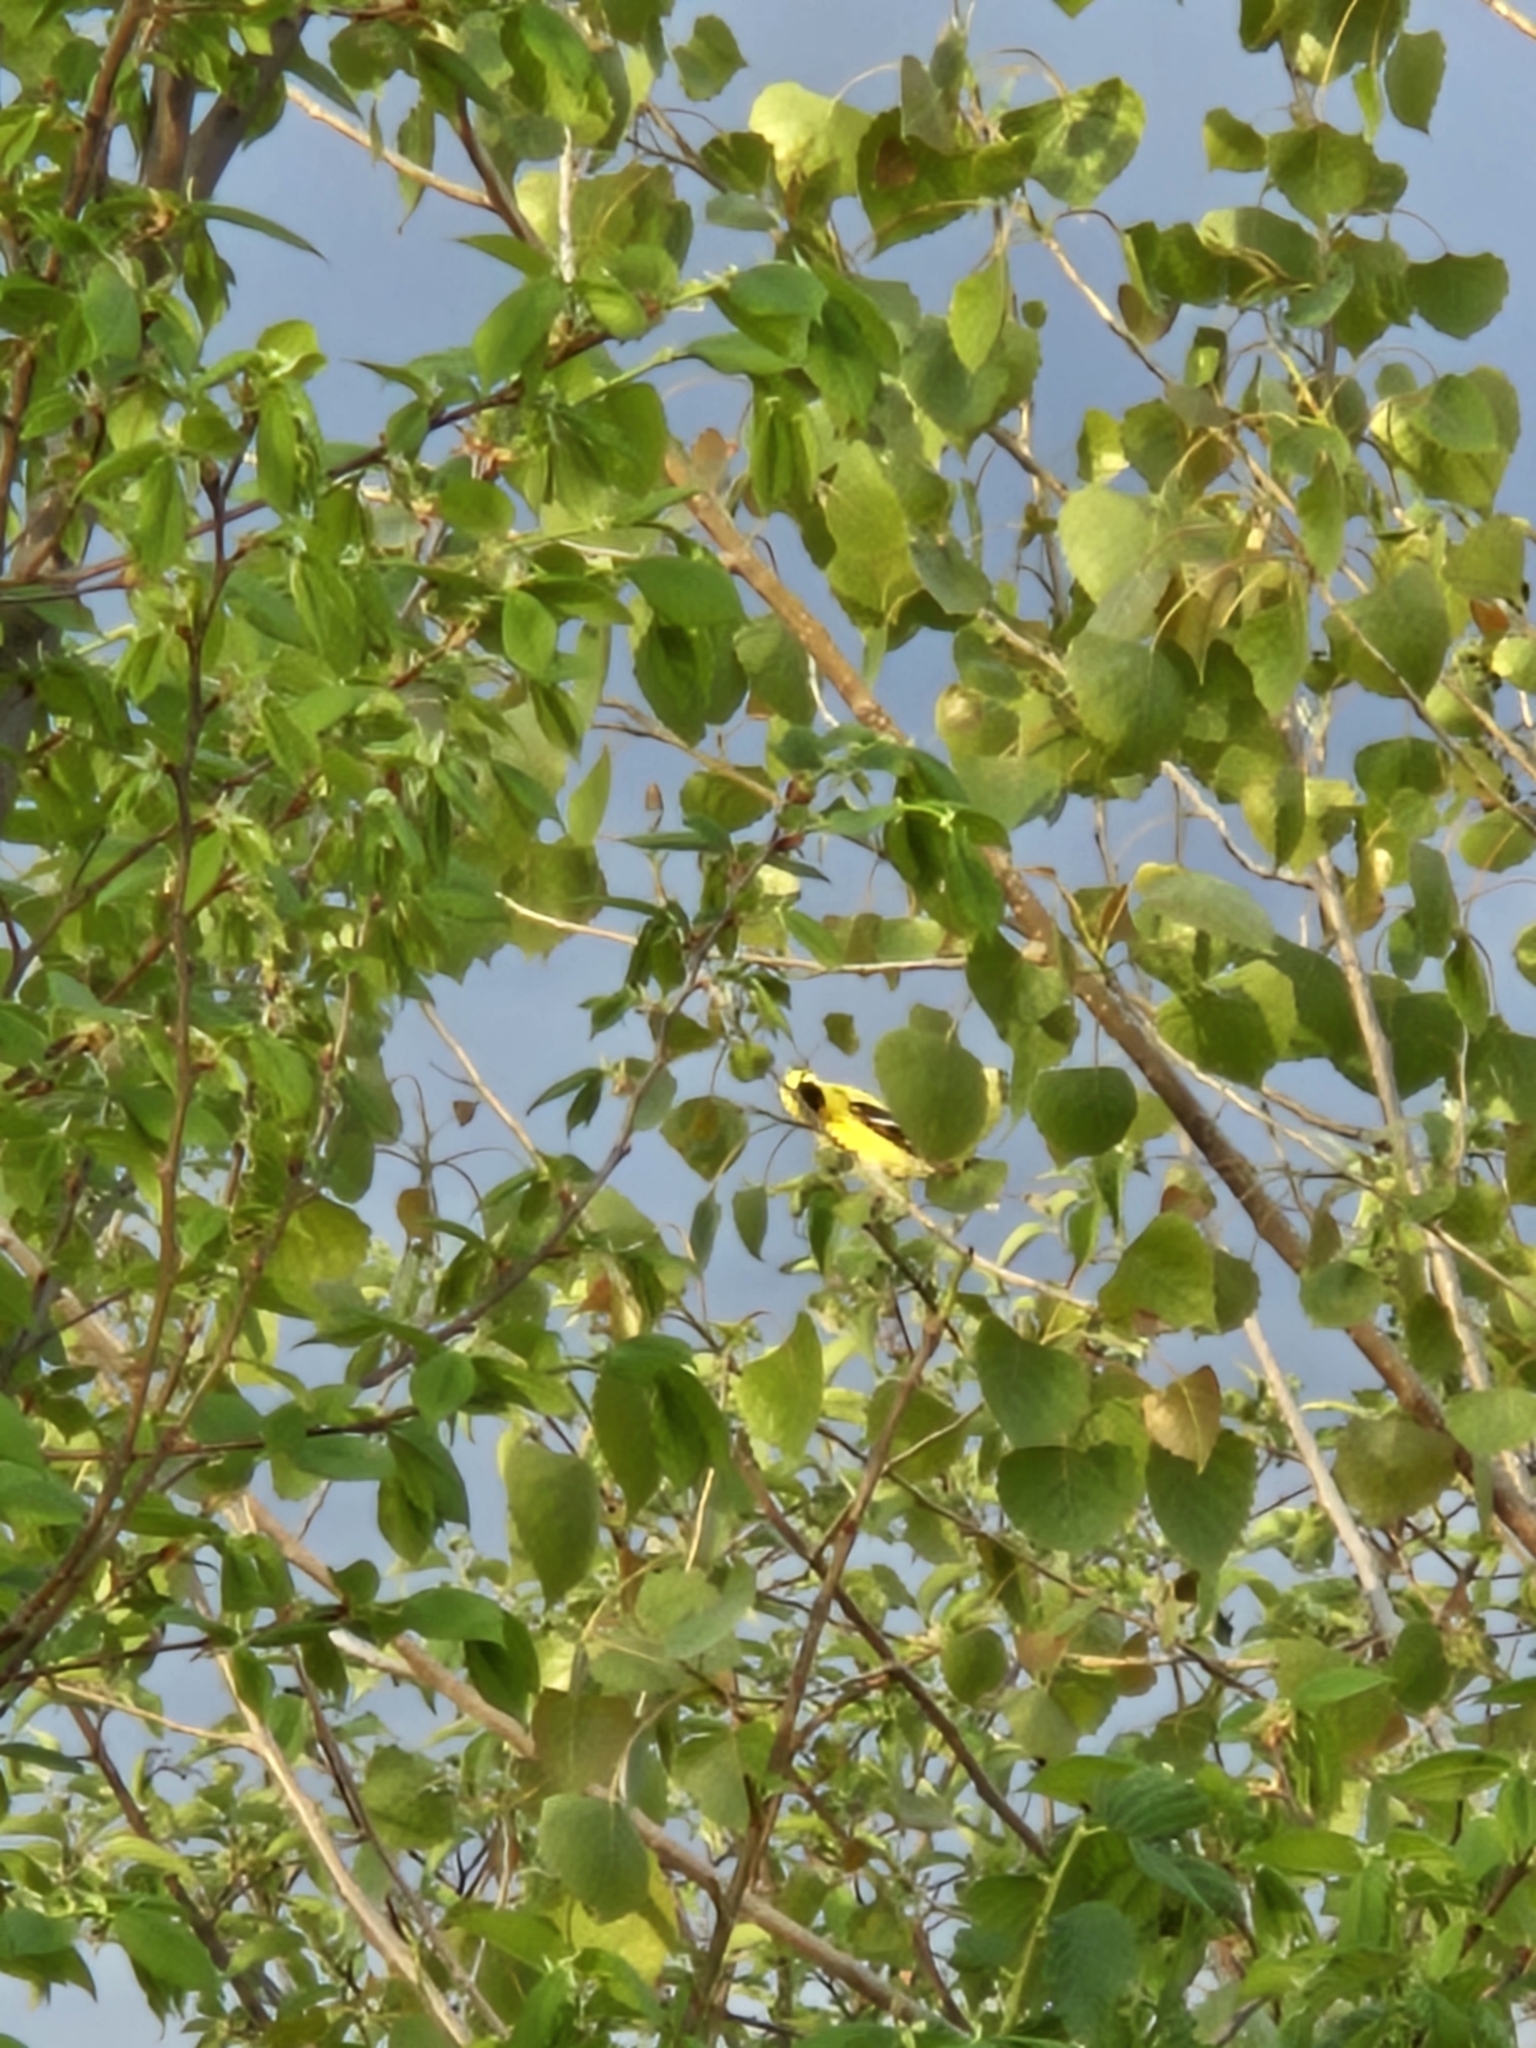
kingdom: Animalia
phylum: Chordata
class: Aves
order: Passeriformes
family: Fringillidae
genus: Spinus
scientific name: Spinus tristis
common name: American goldfinch
